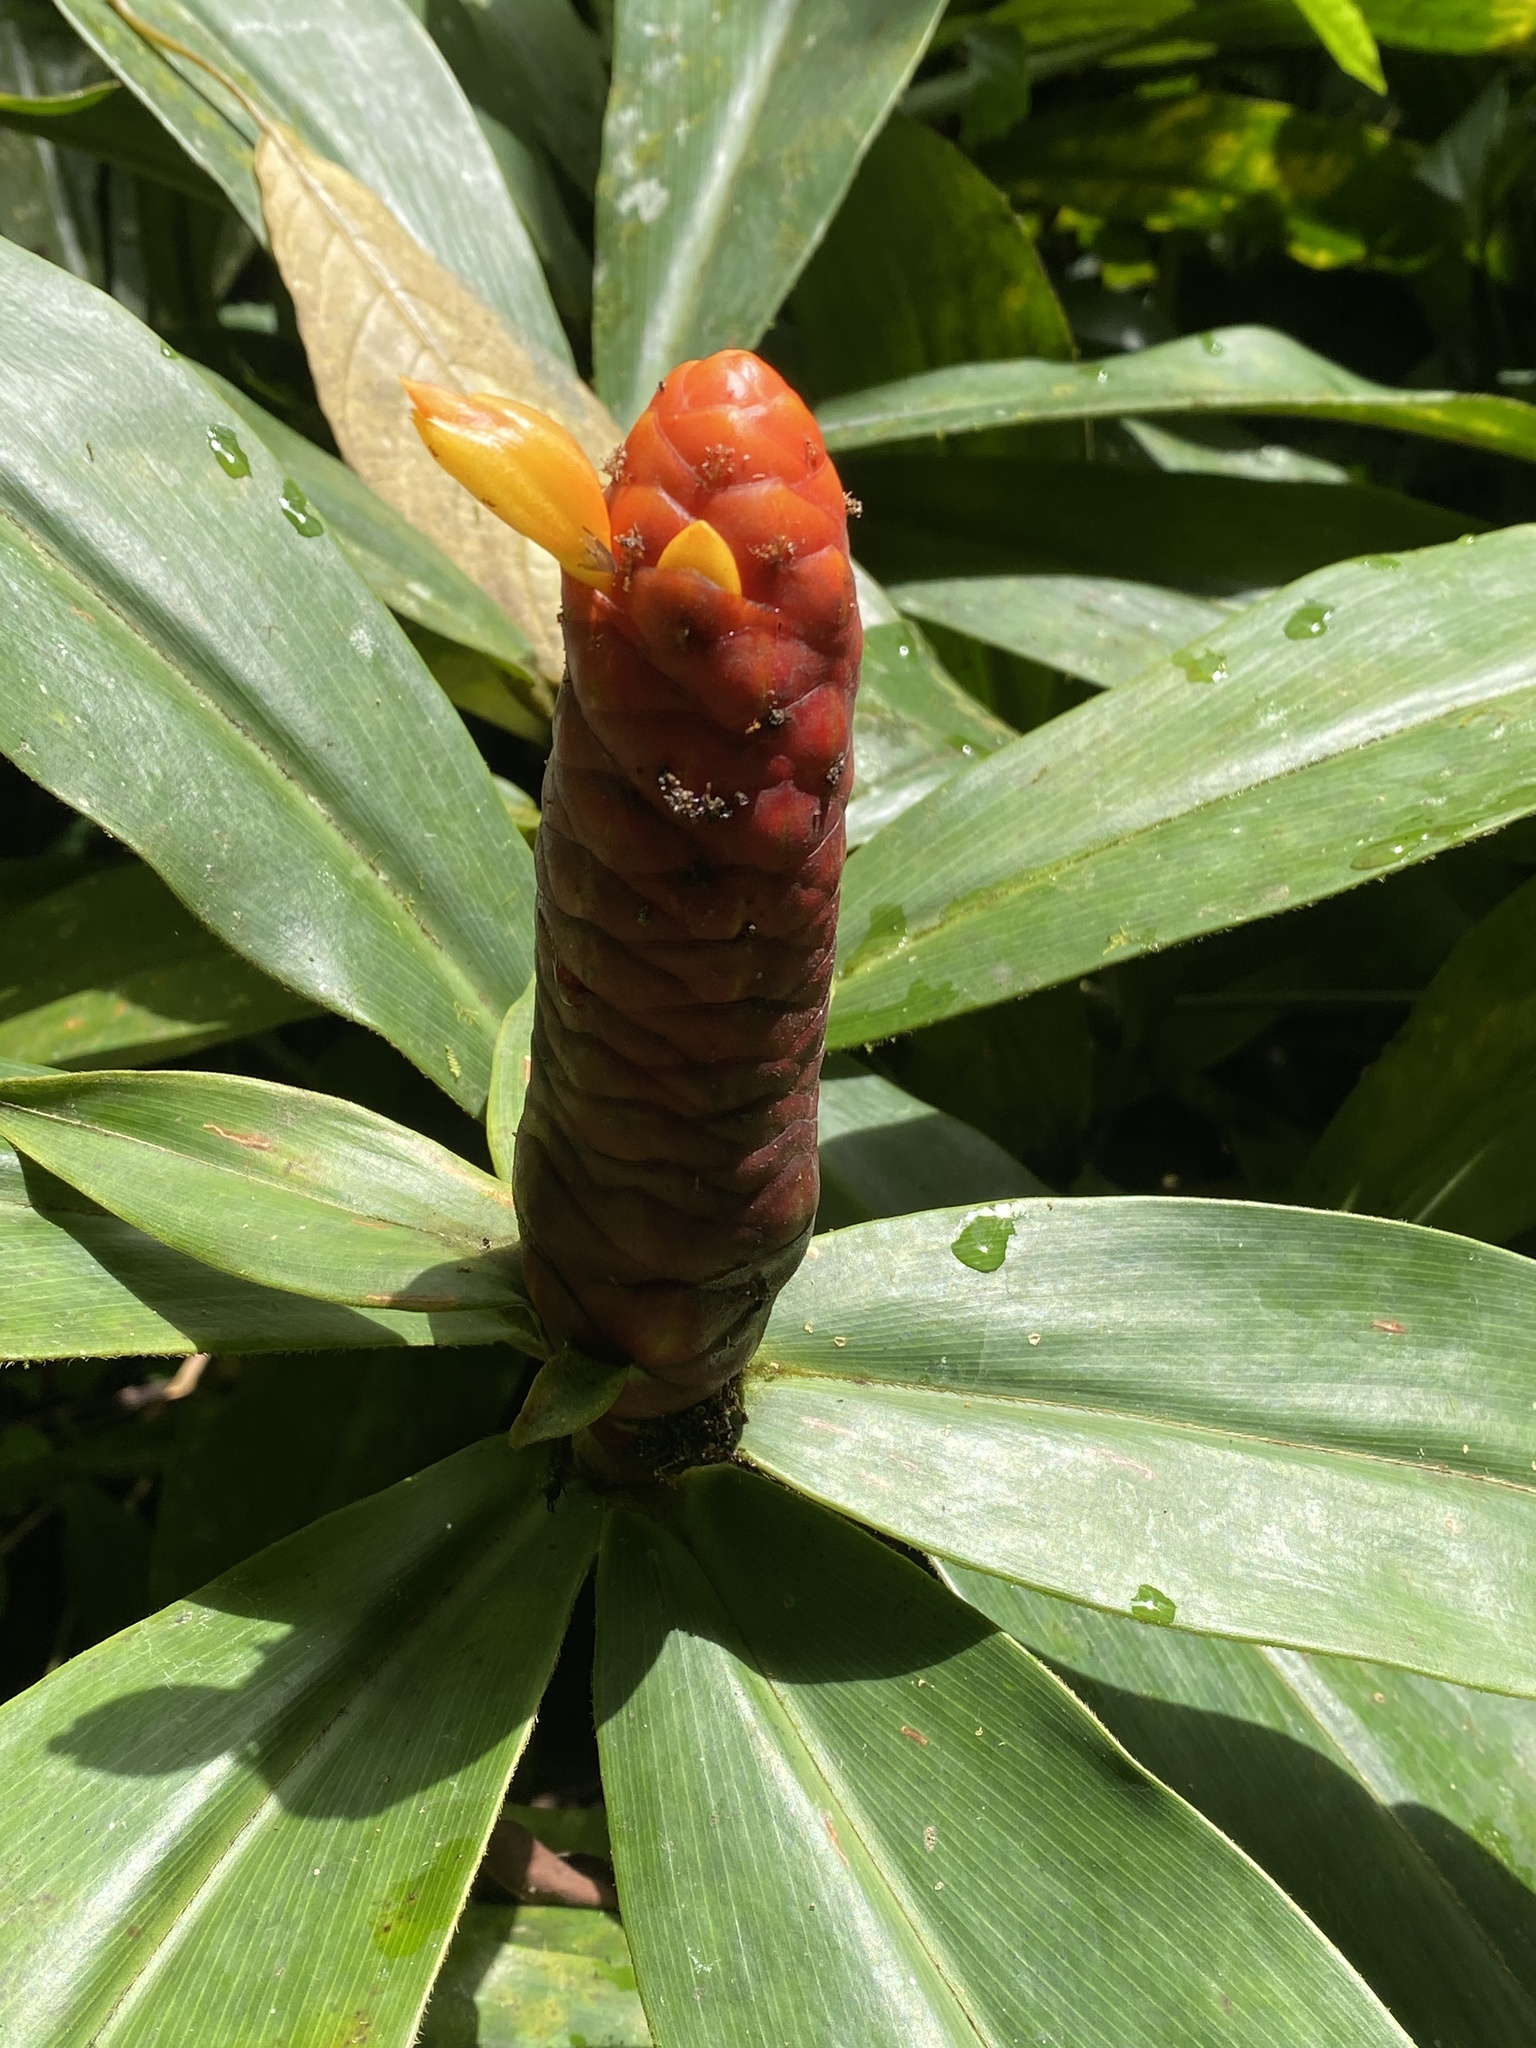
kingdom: Plantae
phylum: Tracheophyta
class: Liliopsida
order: Zingiberales
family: Costaceae
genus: Costus
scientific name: Costus scaber
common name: Spiral head ginger
